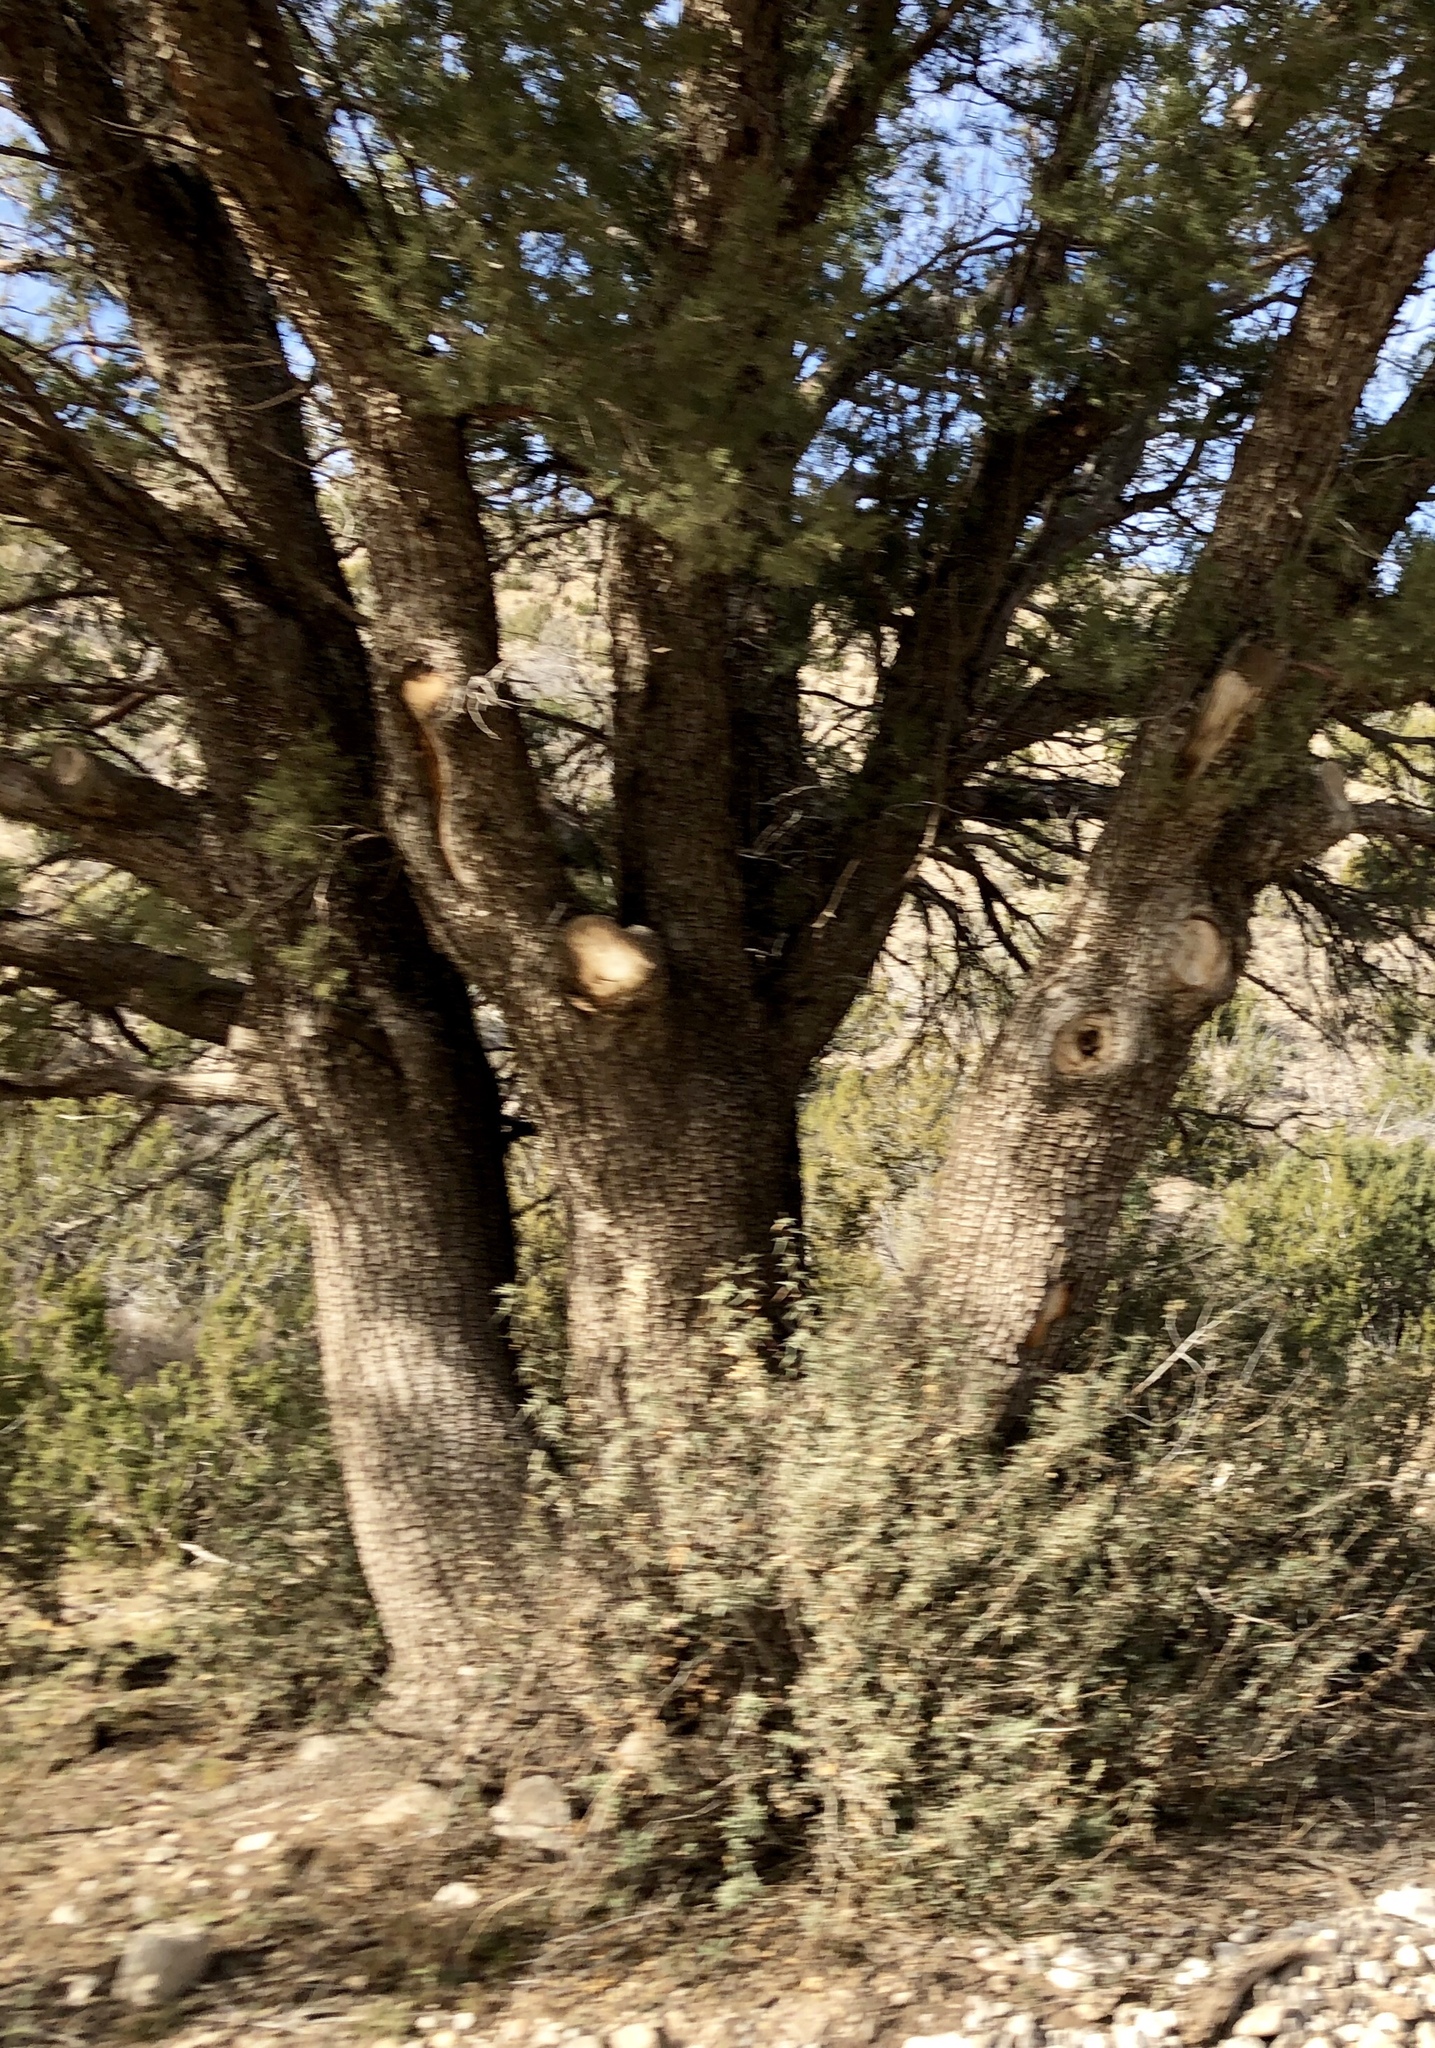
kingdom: Plantae
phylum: Tracheophyta
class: Pinopsida
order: Pinales
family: Cupressaceae
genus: Juniperus
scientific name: Juniperus deppeana
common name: Alligator juniper
